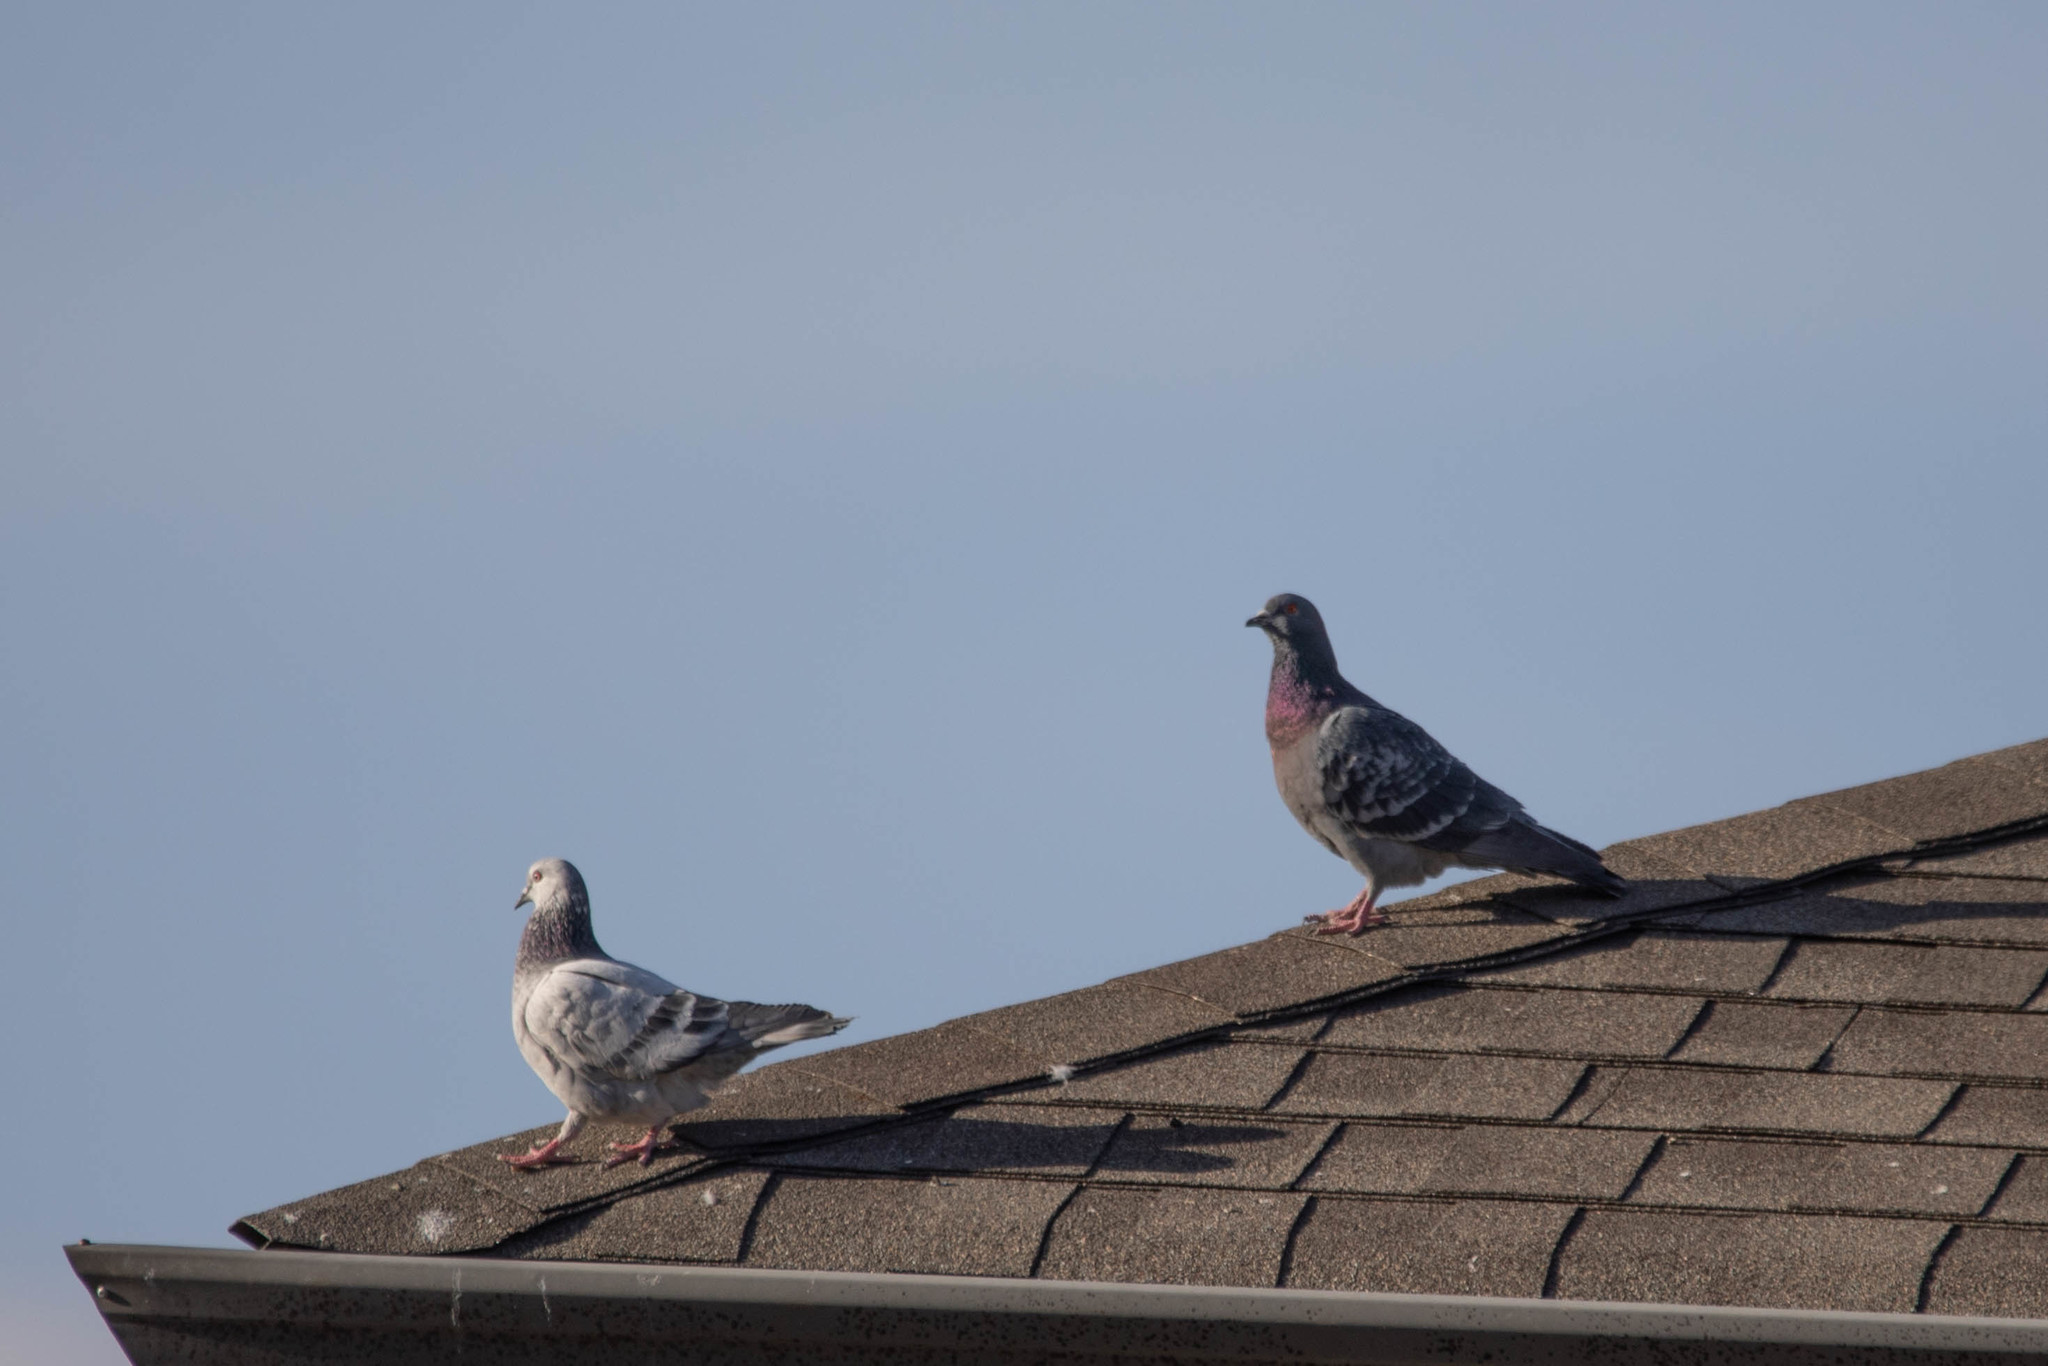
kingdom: Animalia
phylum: Chordata
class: Aves
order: Columbiformes
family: Columbidae
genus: Columba
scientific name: Columba livia
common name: Rock pigeon
